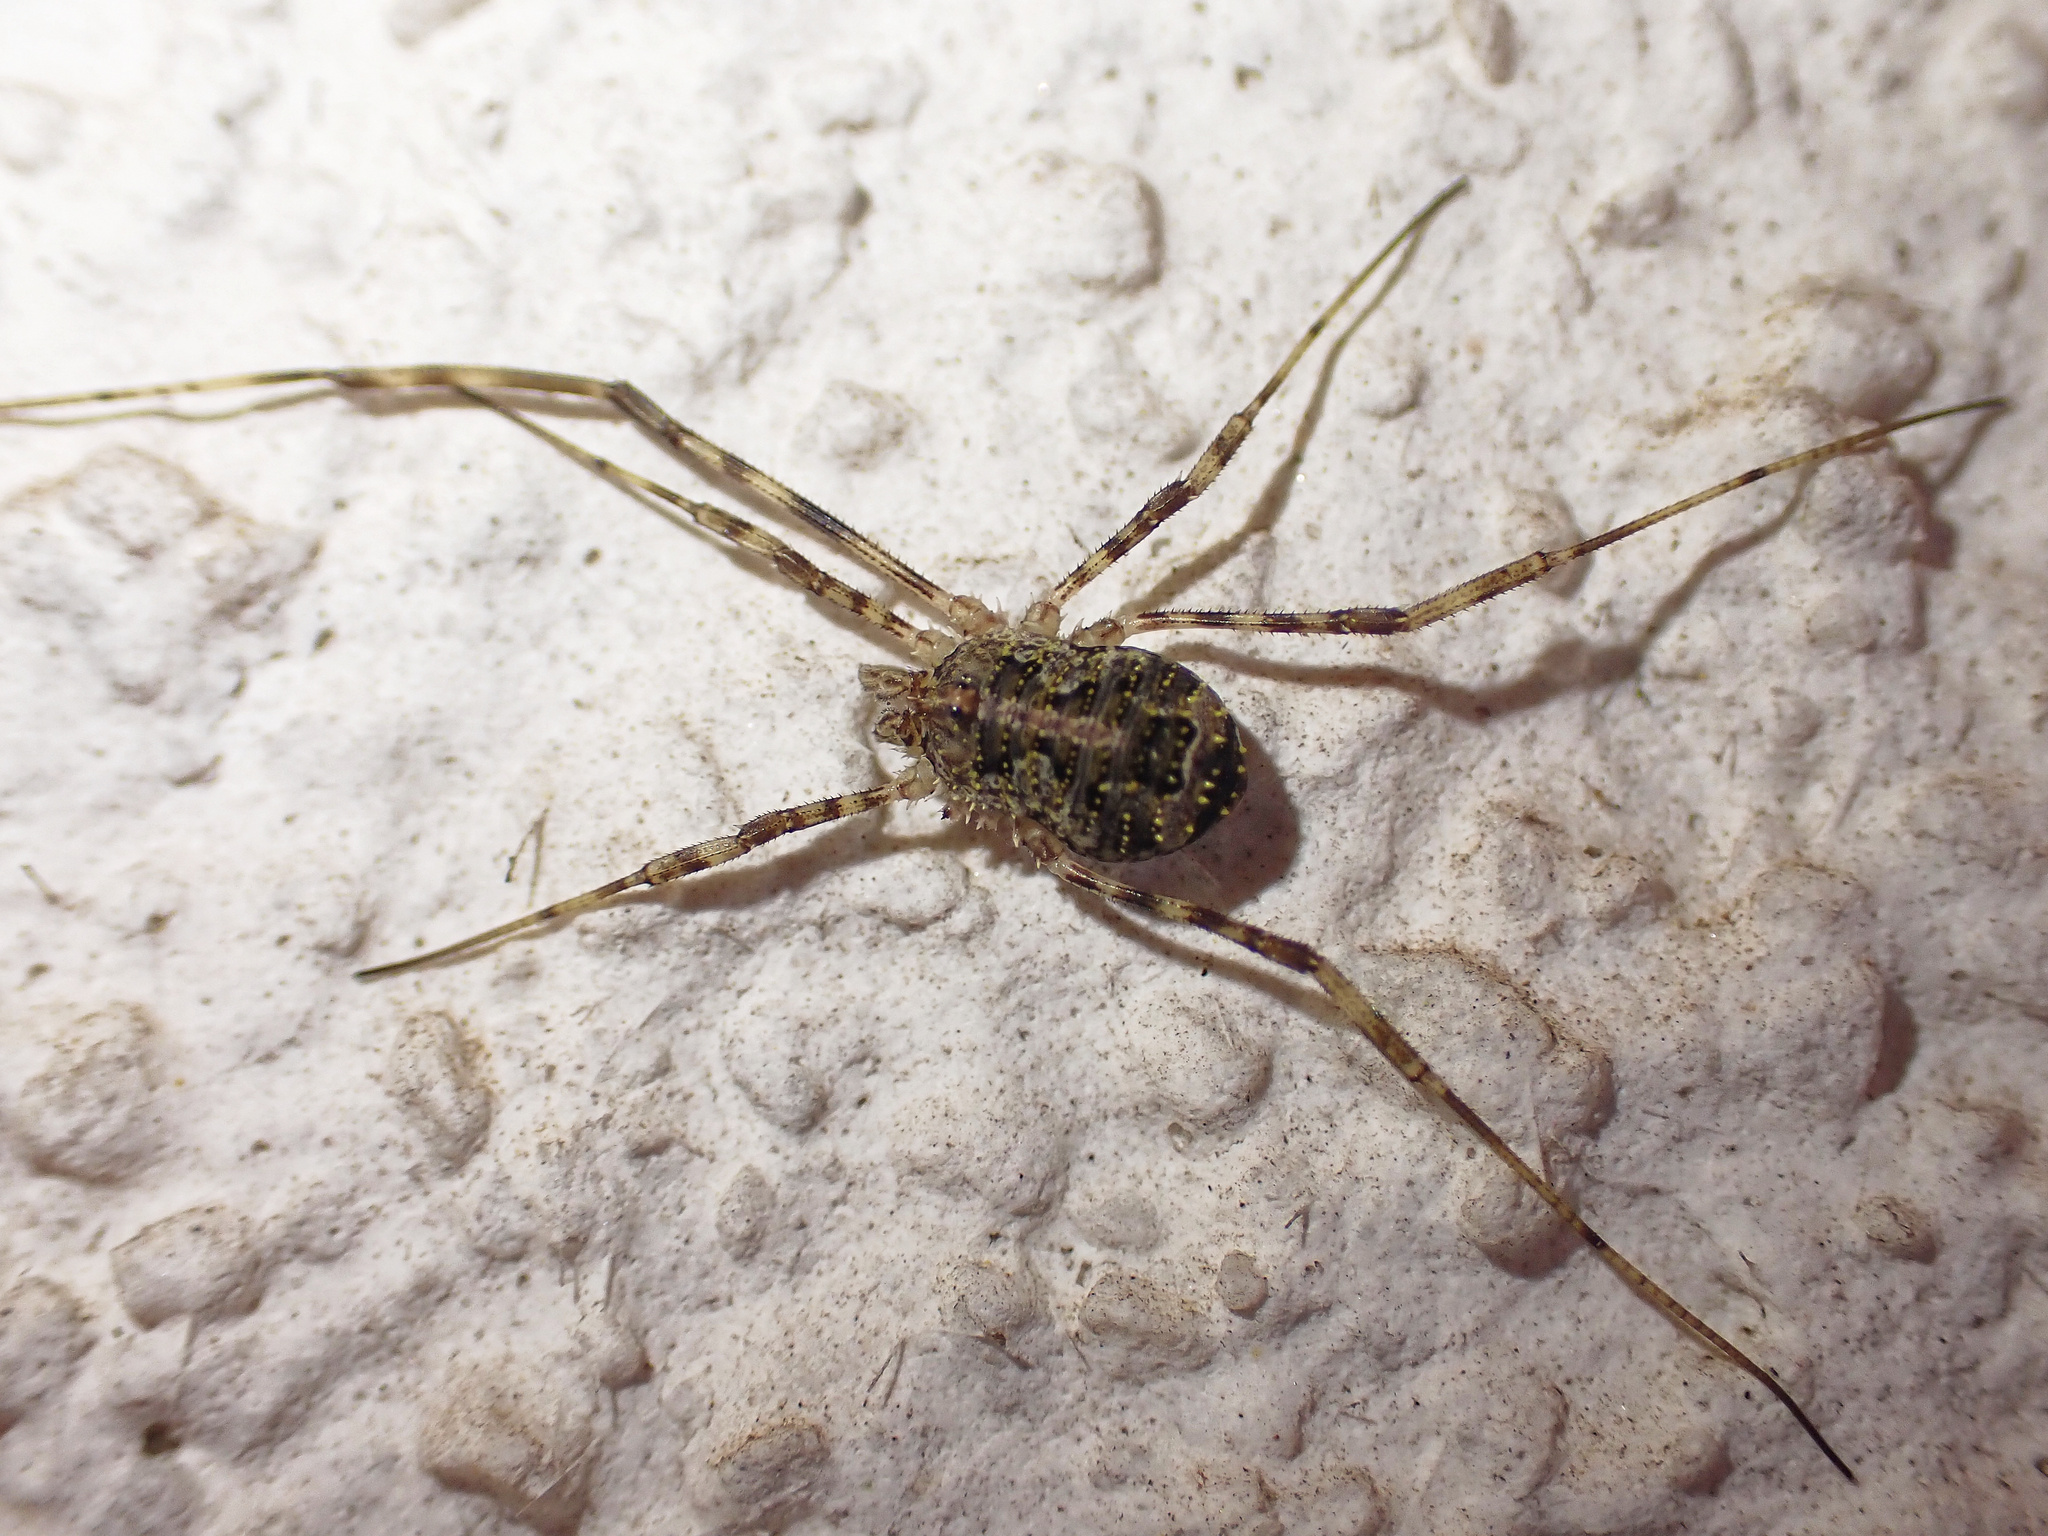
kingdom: Animalia
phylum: Arthropoda
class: Arachnida
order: Opiliones
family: Phalangiidae
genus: Lacinius
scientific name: Lacinius dentiger
